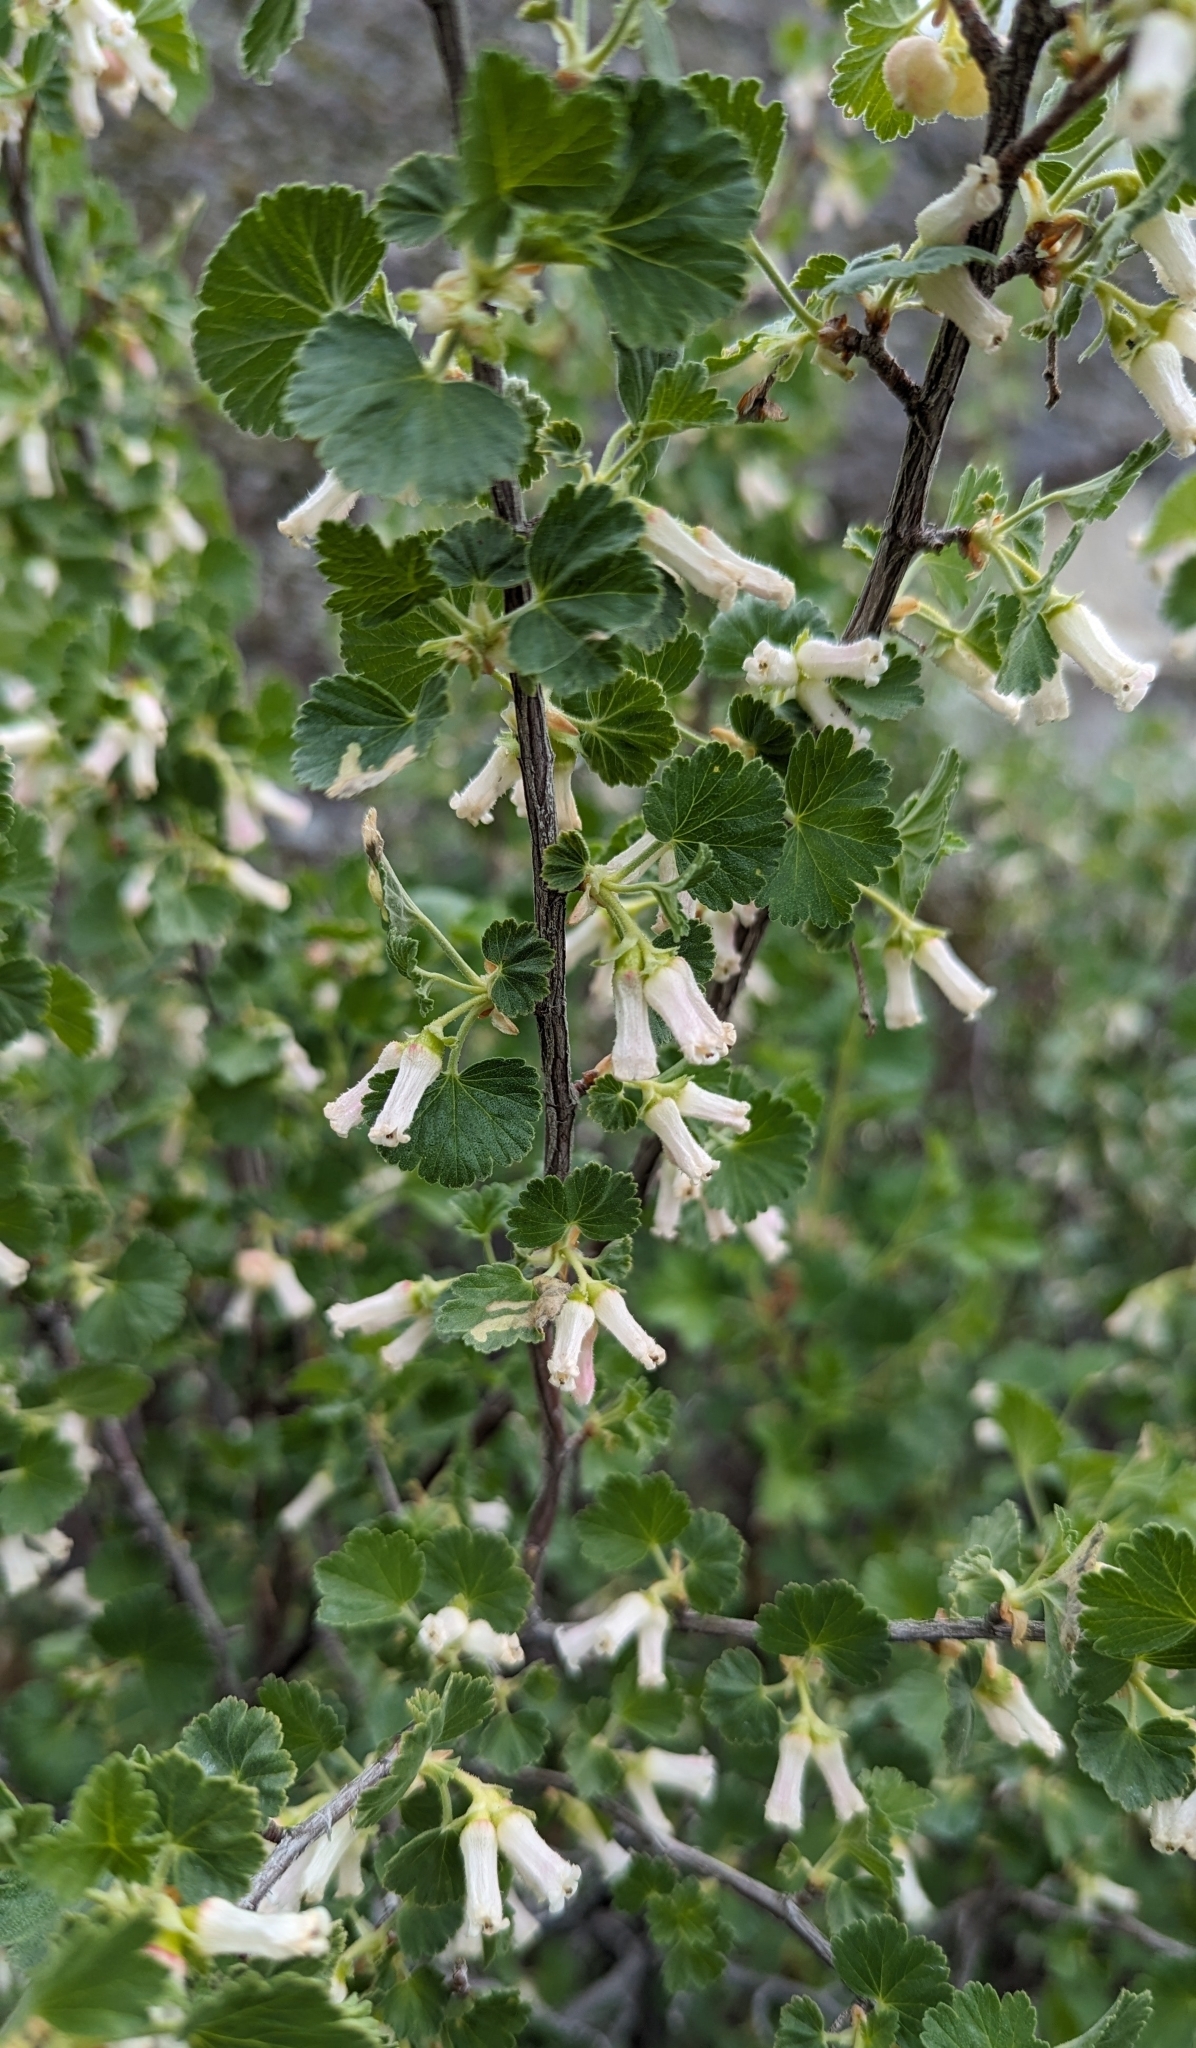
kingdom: Plantae
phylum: Tracheophyta
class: Magnoliopsida
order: Saxifragales
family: Grossulariaceae
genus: Ribes
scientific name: Ribes cereum
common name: Wax currant
